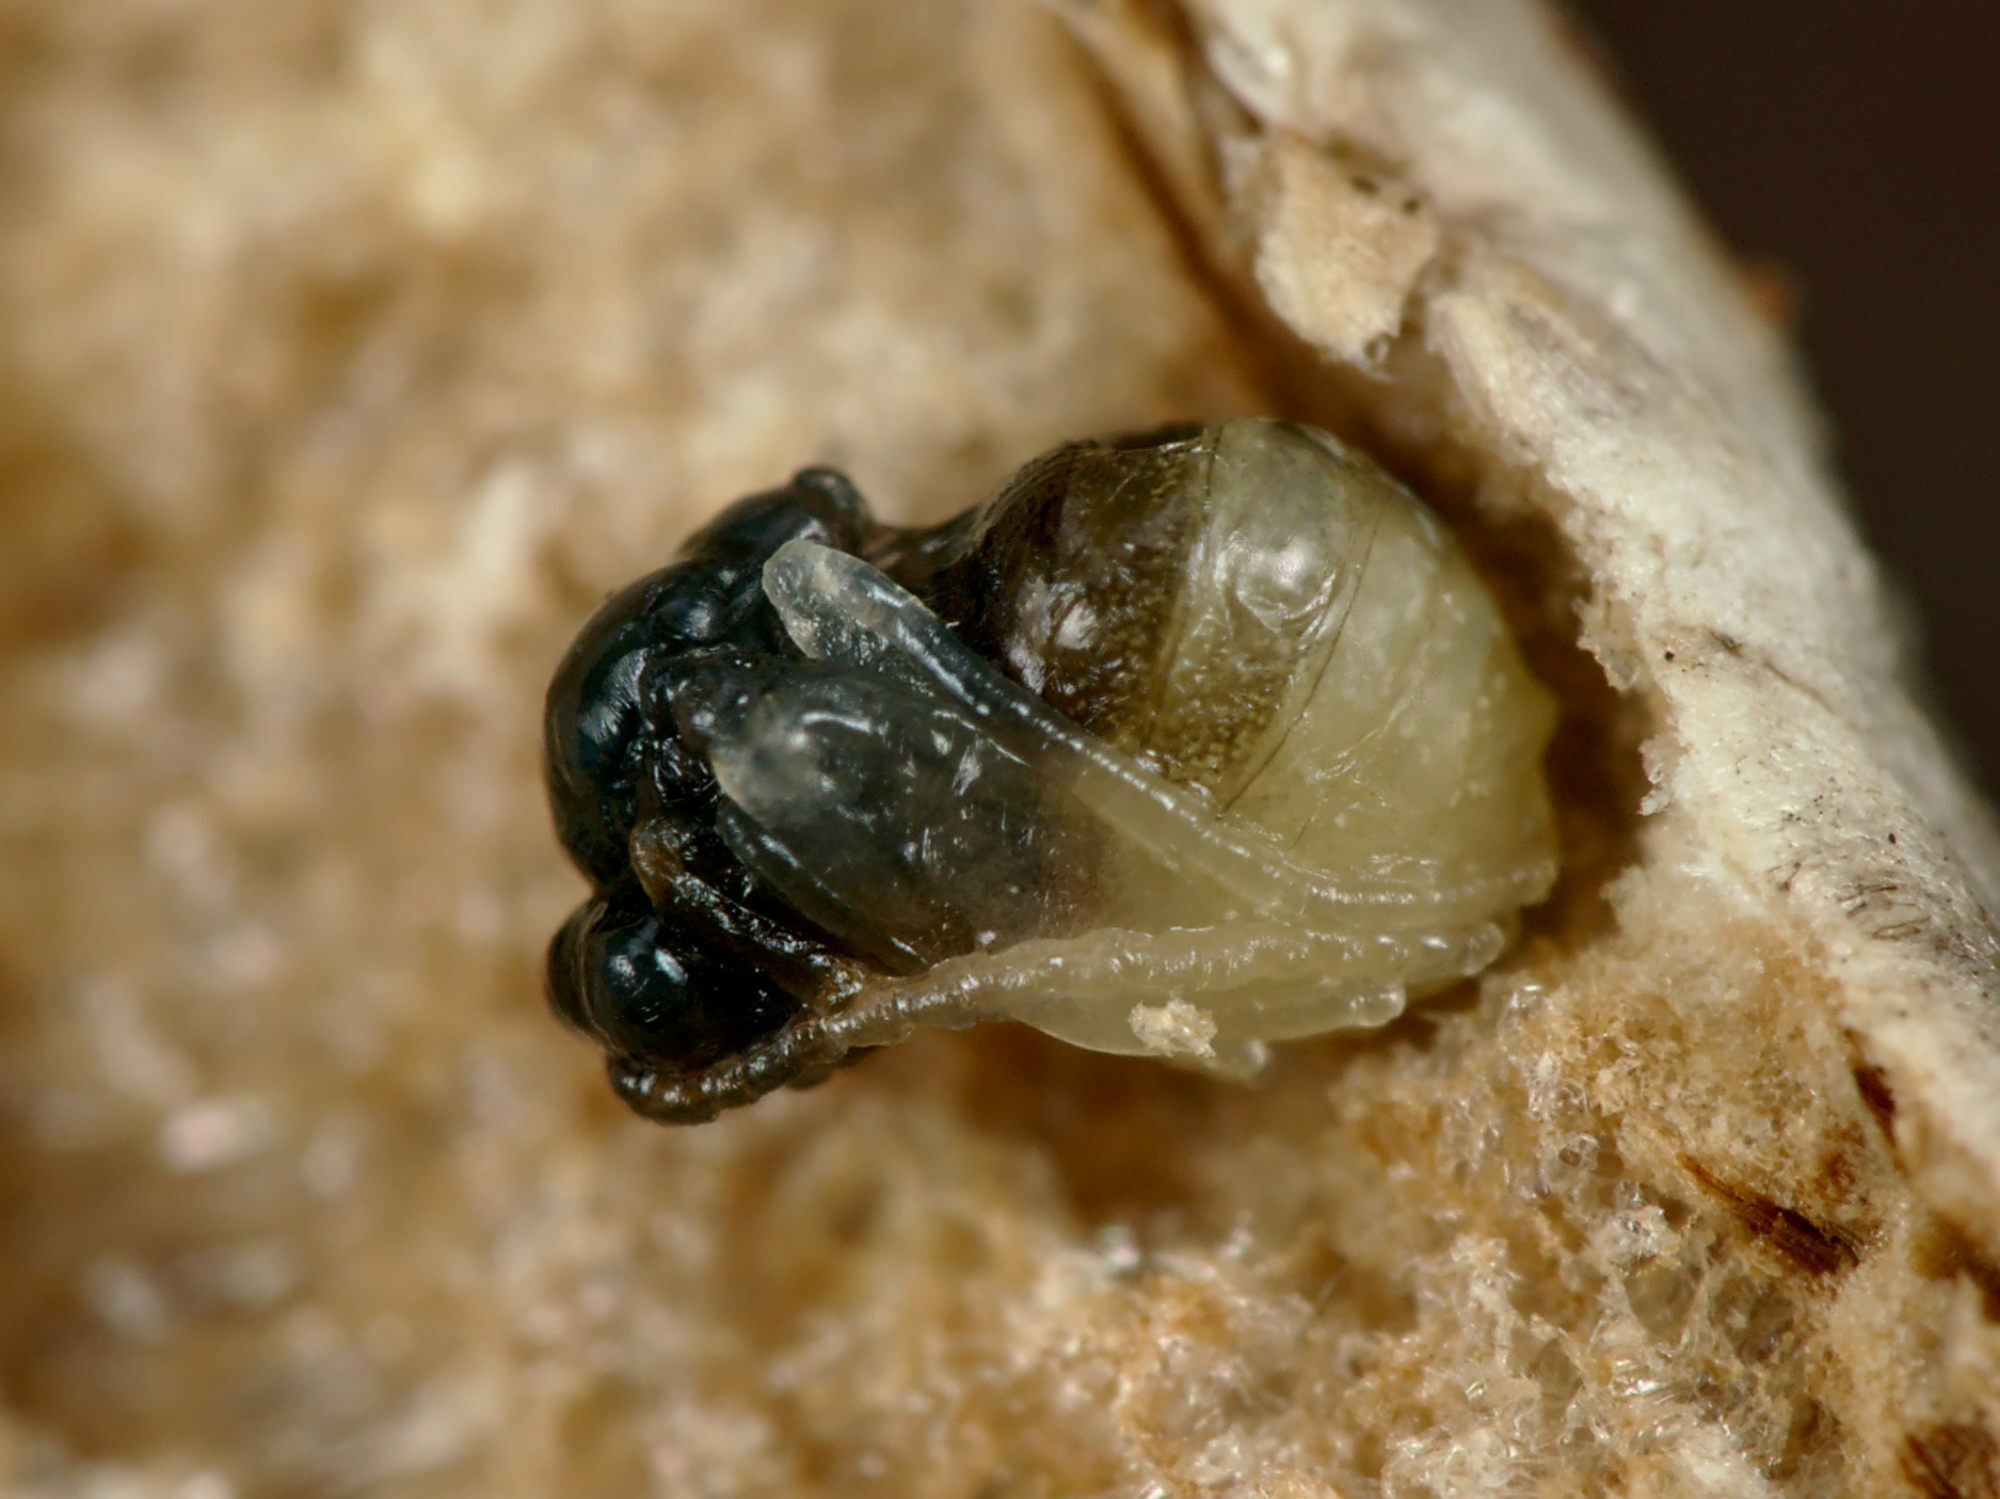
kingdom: Animalia
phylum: Arthropoda
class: Insecta
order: Hymenoptera
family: Cynipidae
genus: Diastrophus
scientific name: Diastrophus rubi
